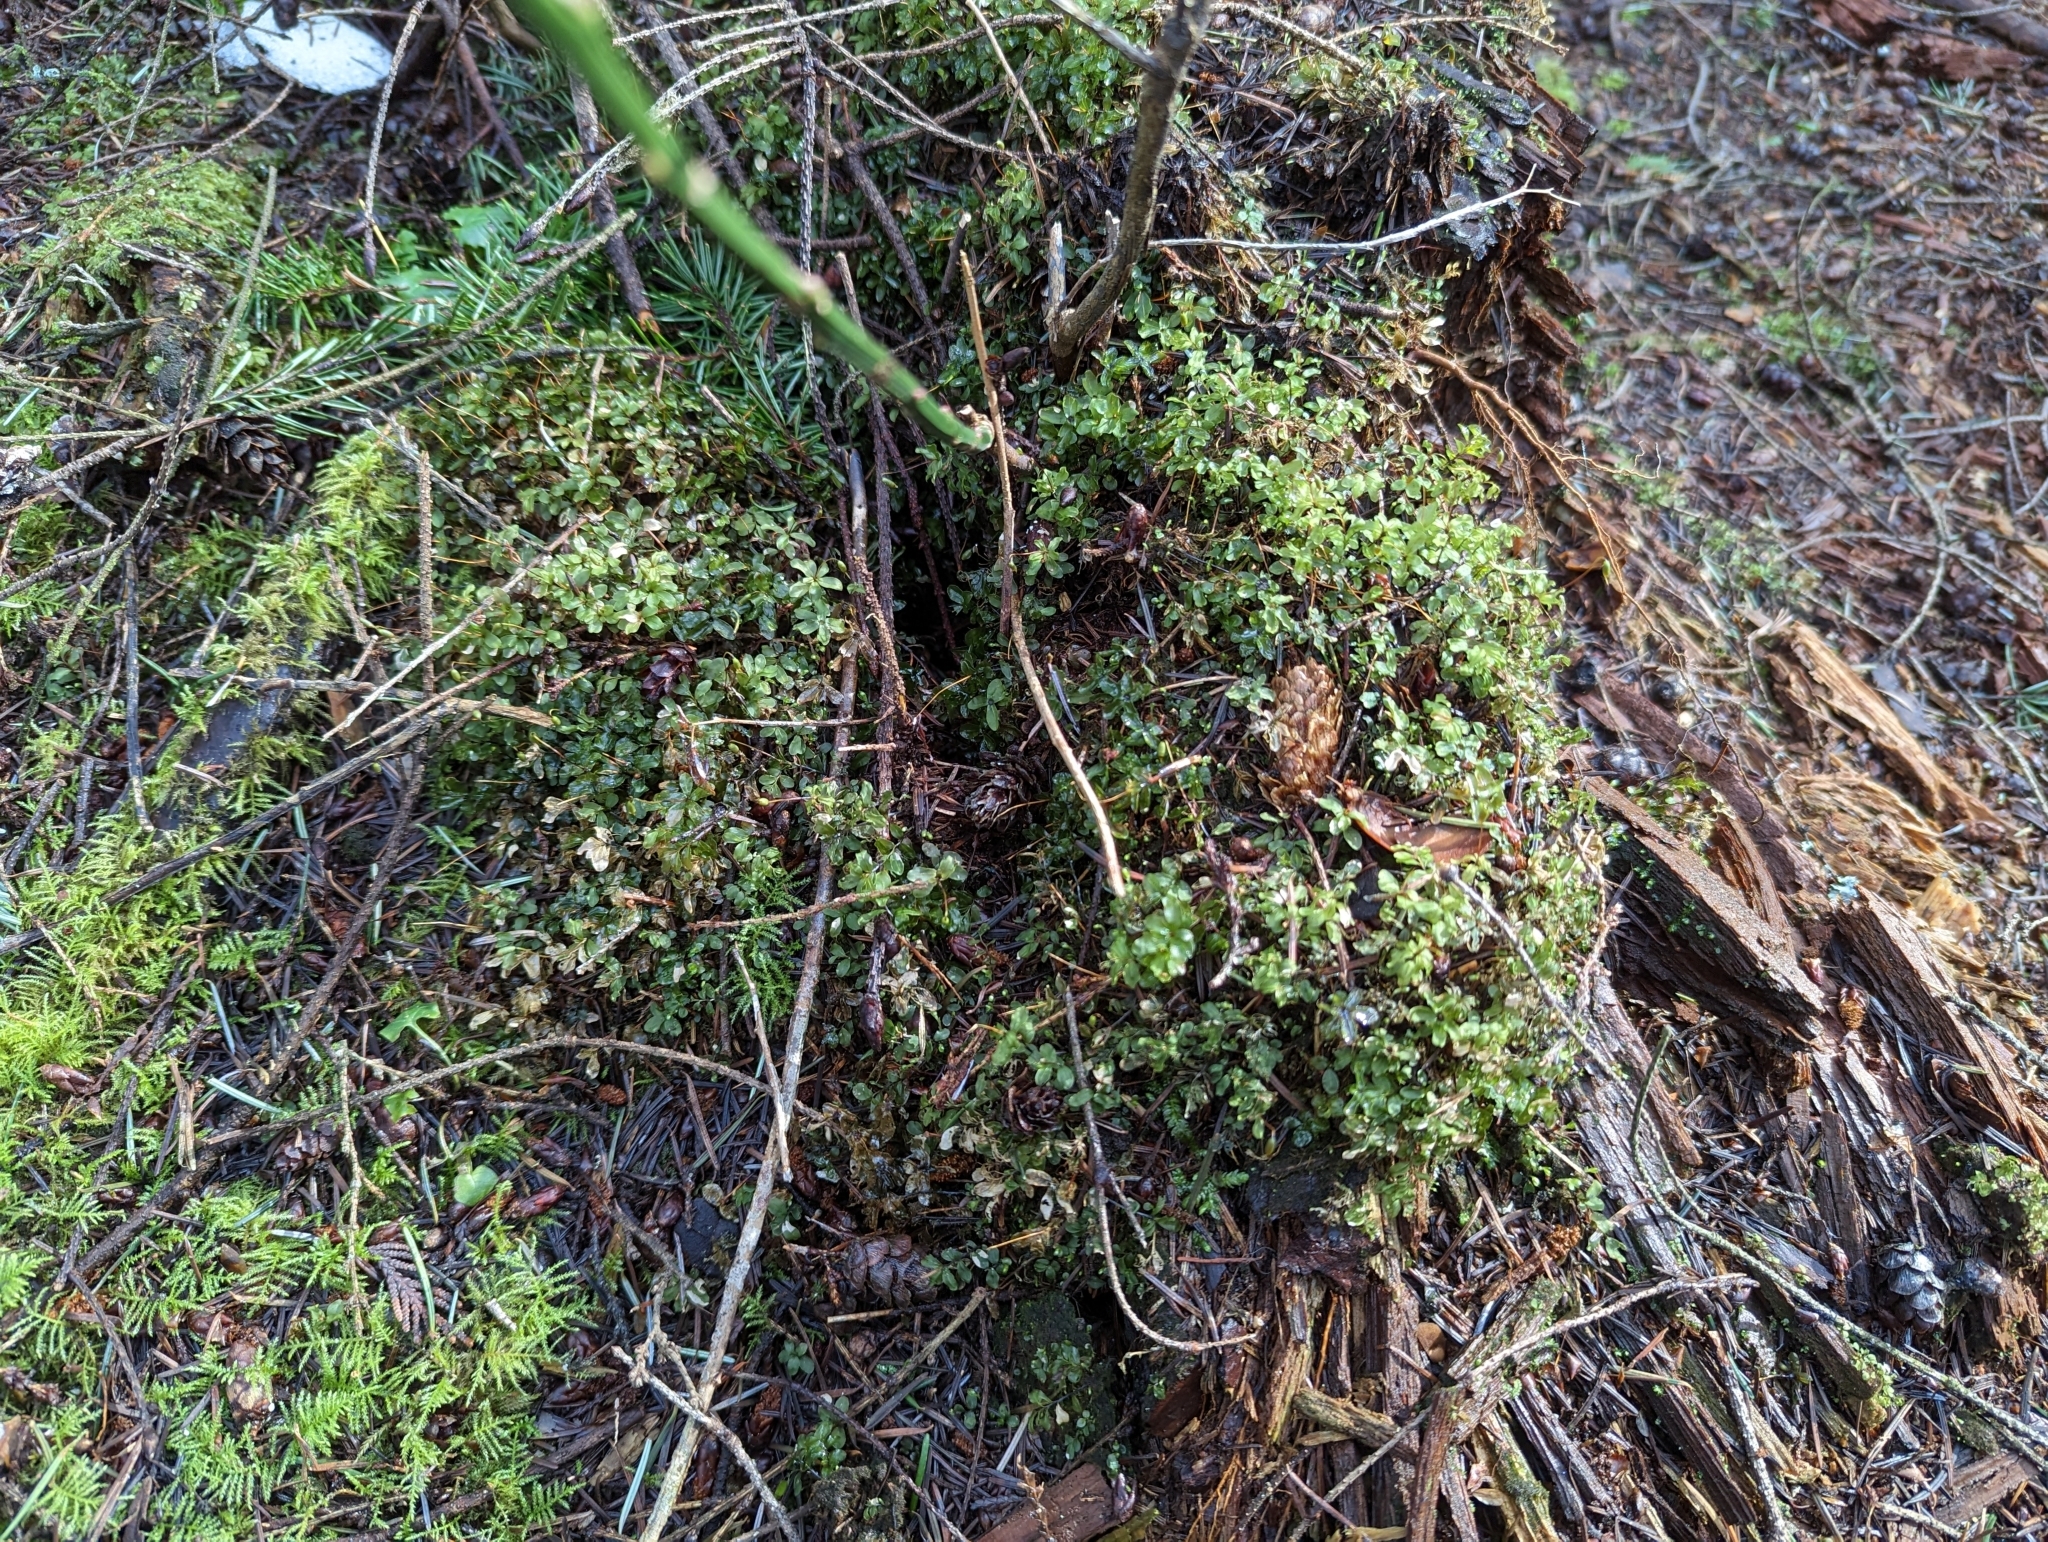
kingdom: Plantae
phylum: Bryophyta
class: Bryopsida
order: Bryales
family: Mniaceae
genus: Rhizomnium
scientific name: Rhizomnium glabrescens
